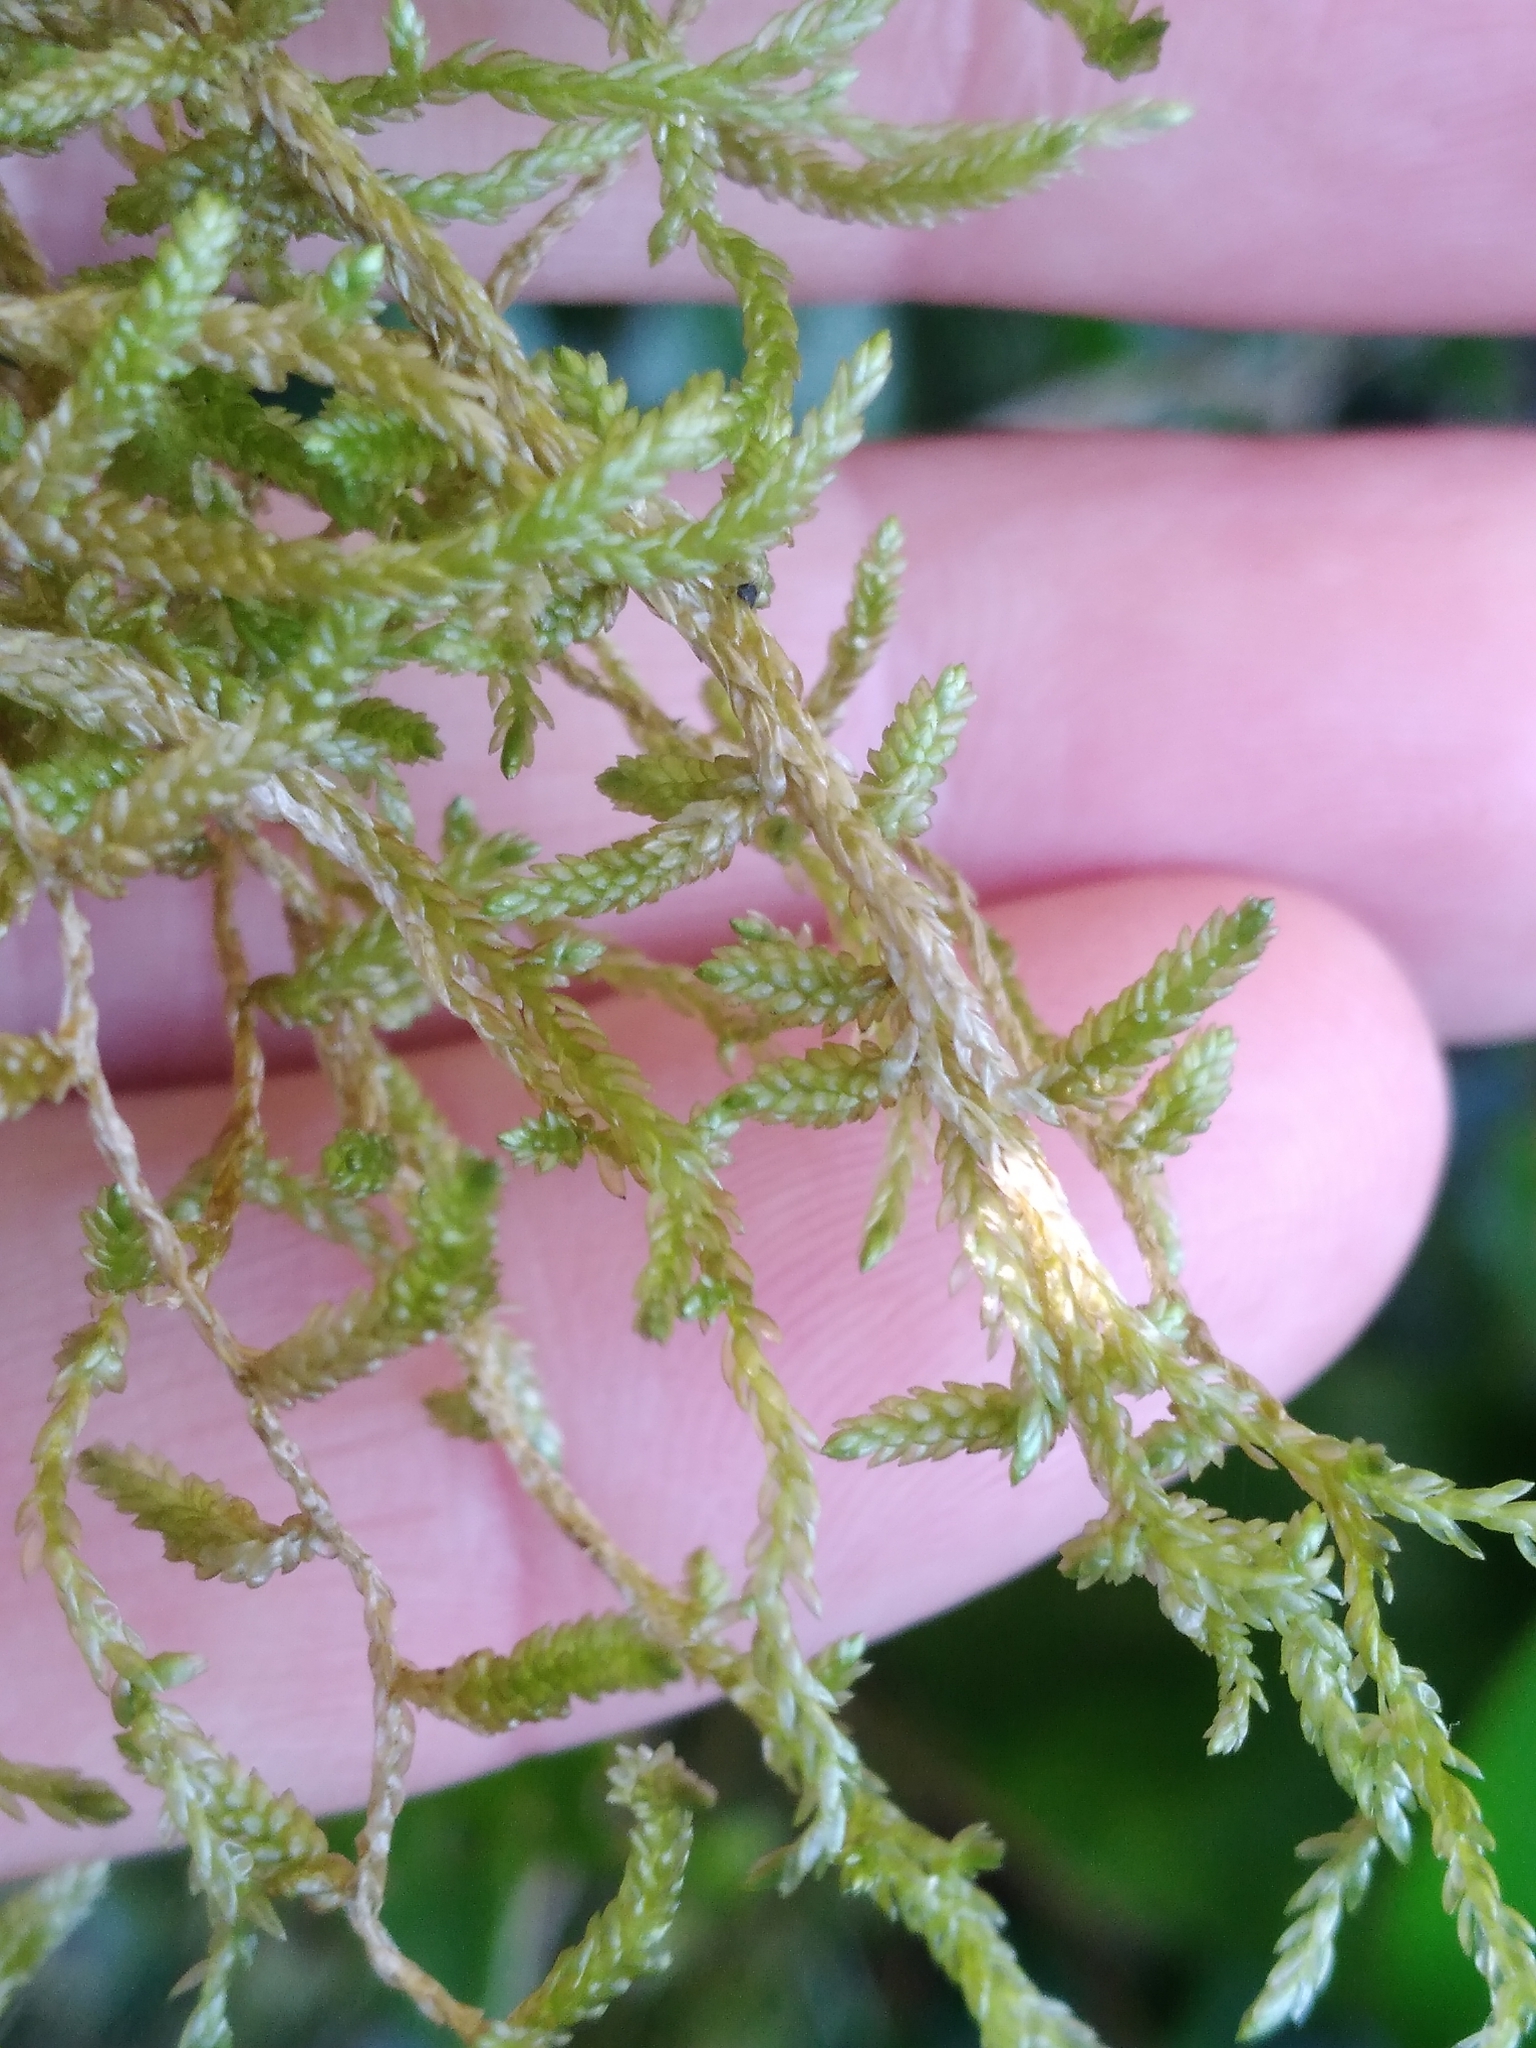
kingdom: Plantae
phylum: Bryophyta
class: Bryopsida
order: Hypnales
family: Lembophyllaceae
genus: Weymouthia
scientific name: Weymouthia mollis
